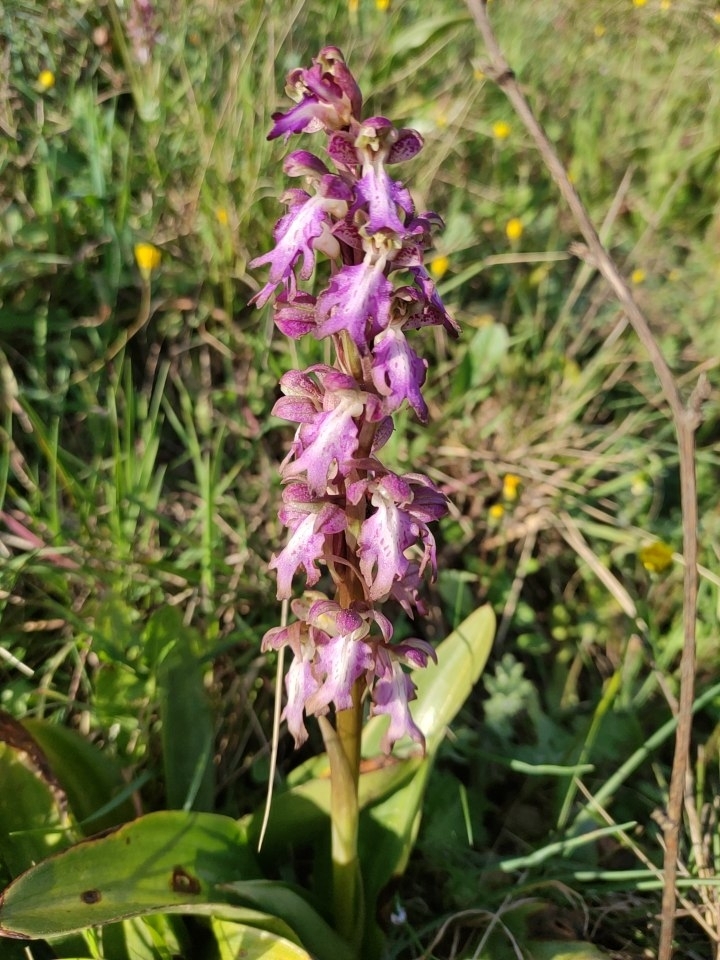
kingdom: Plantae
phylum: Tracheophyta
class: Liliopsida
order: Asparagales
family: Orchidaceae
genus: Himantoglossum
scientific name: Himantoglossum robertianum
